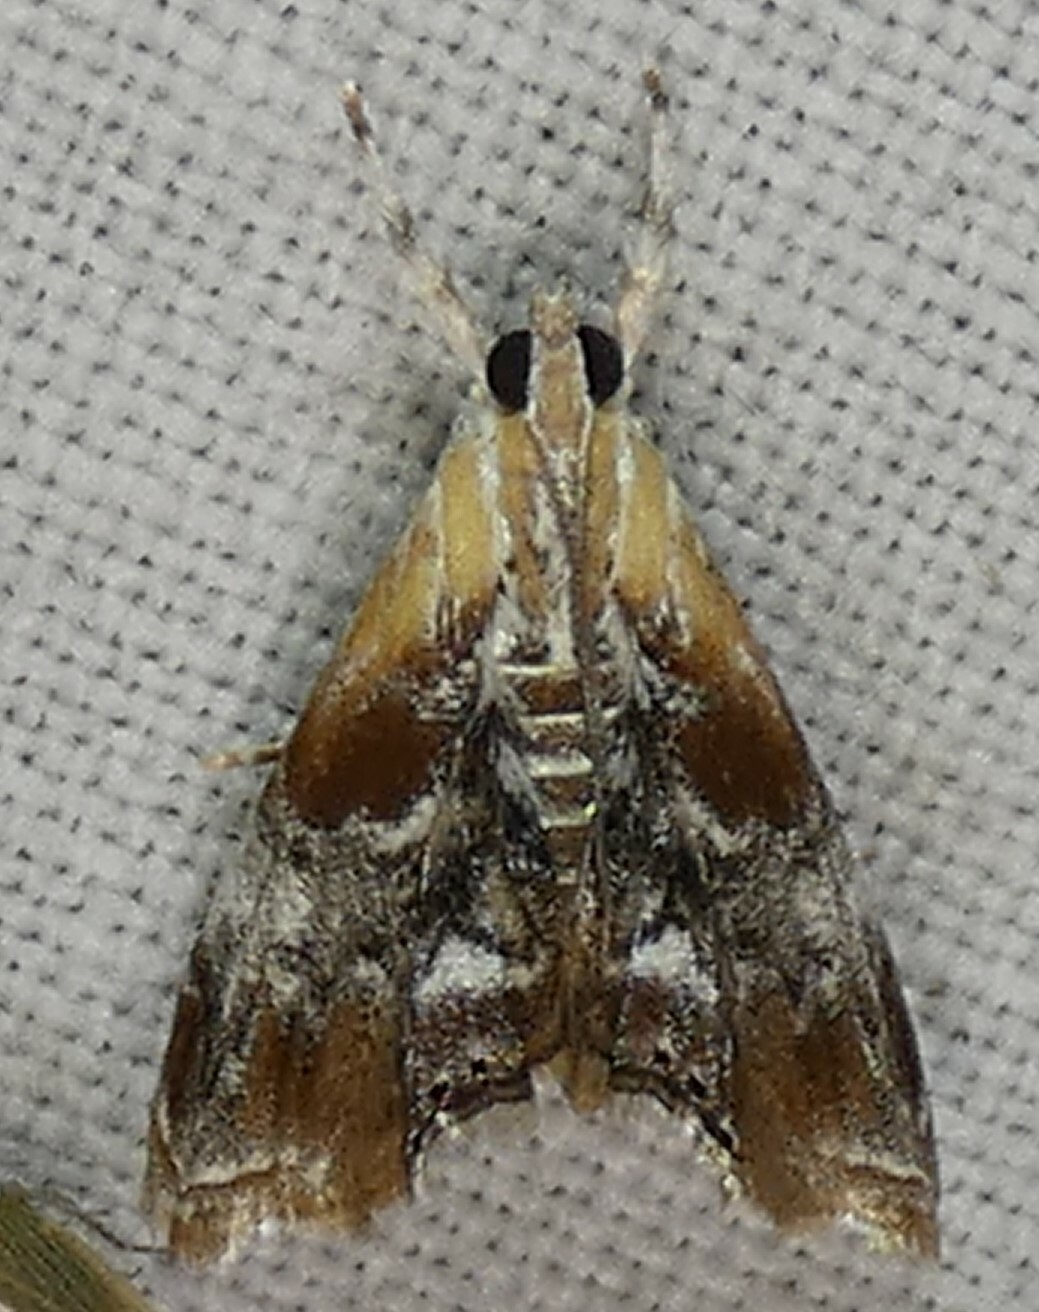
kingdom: Animalia
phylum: Arthropoda
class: Insecta
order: Lepidoptera
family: Crambidae
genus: Dicymolomia
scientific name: Dicymolomia julianalis
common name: Julia's dicymolomia moth
